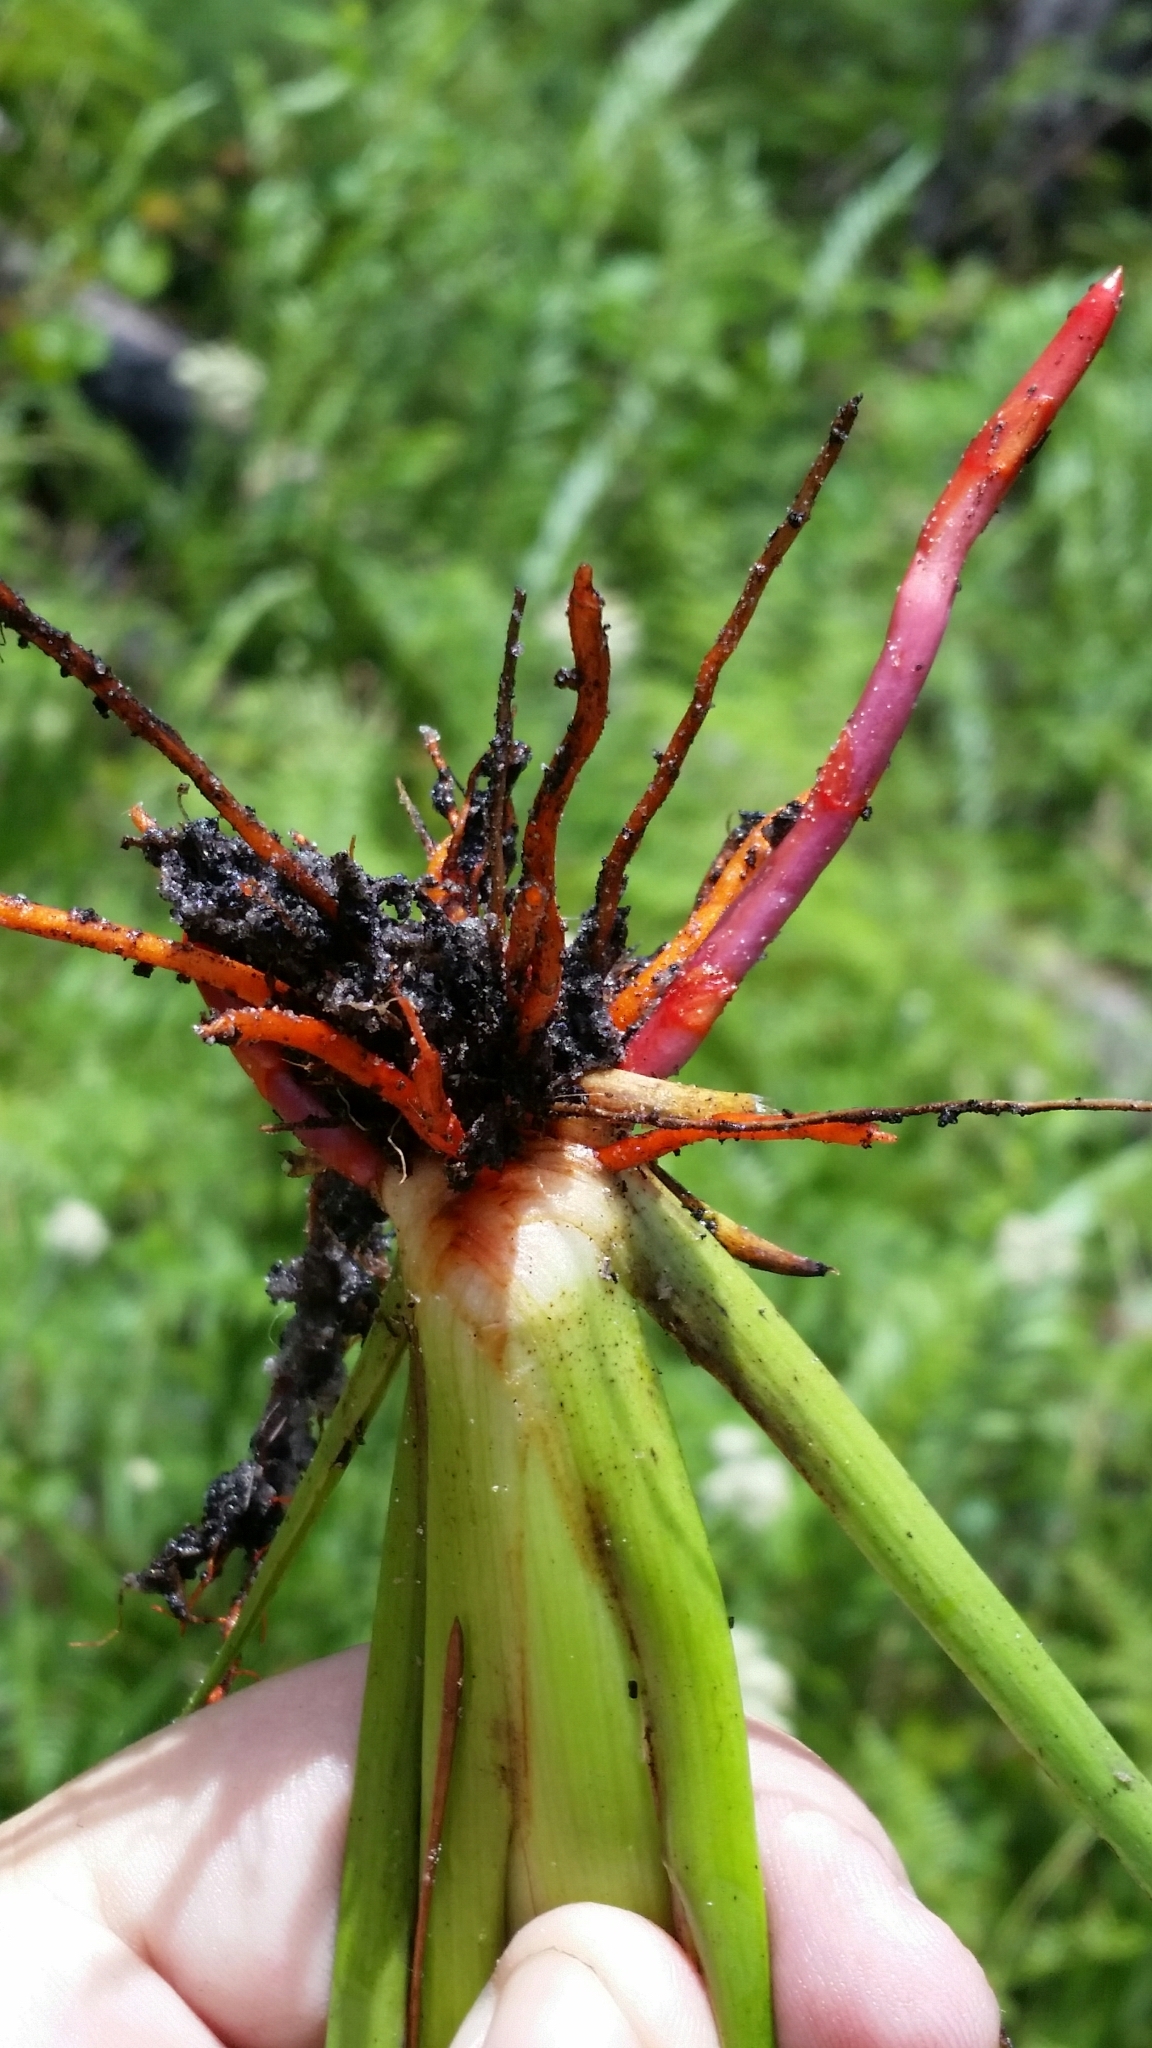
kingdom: Plantae
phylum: Tracheophyta
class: Liliopsida
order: Commelinales
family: Haemodoraceae
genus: Lachnanthes
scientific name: Lachnanthes caroliana
